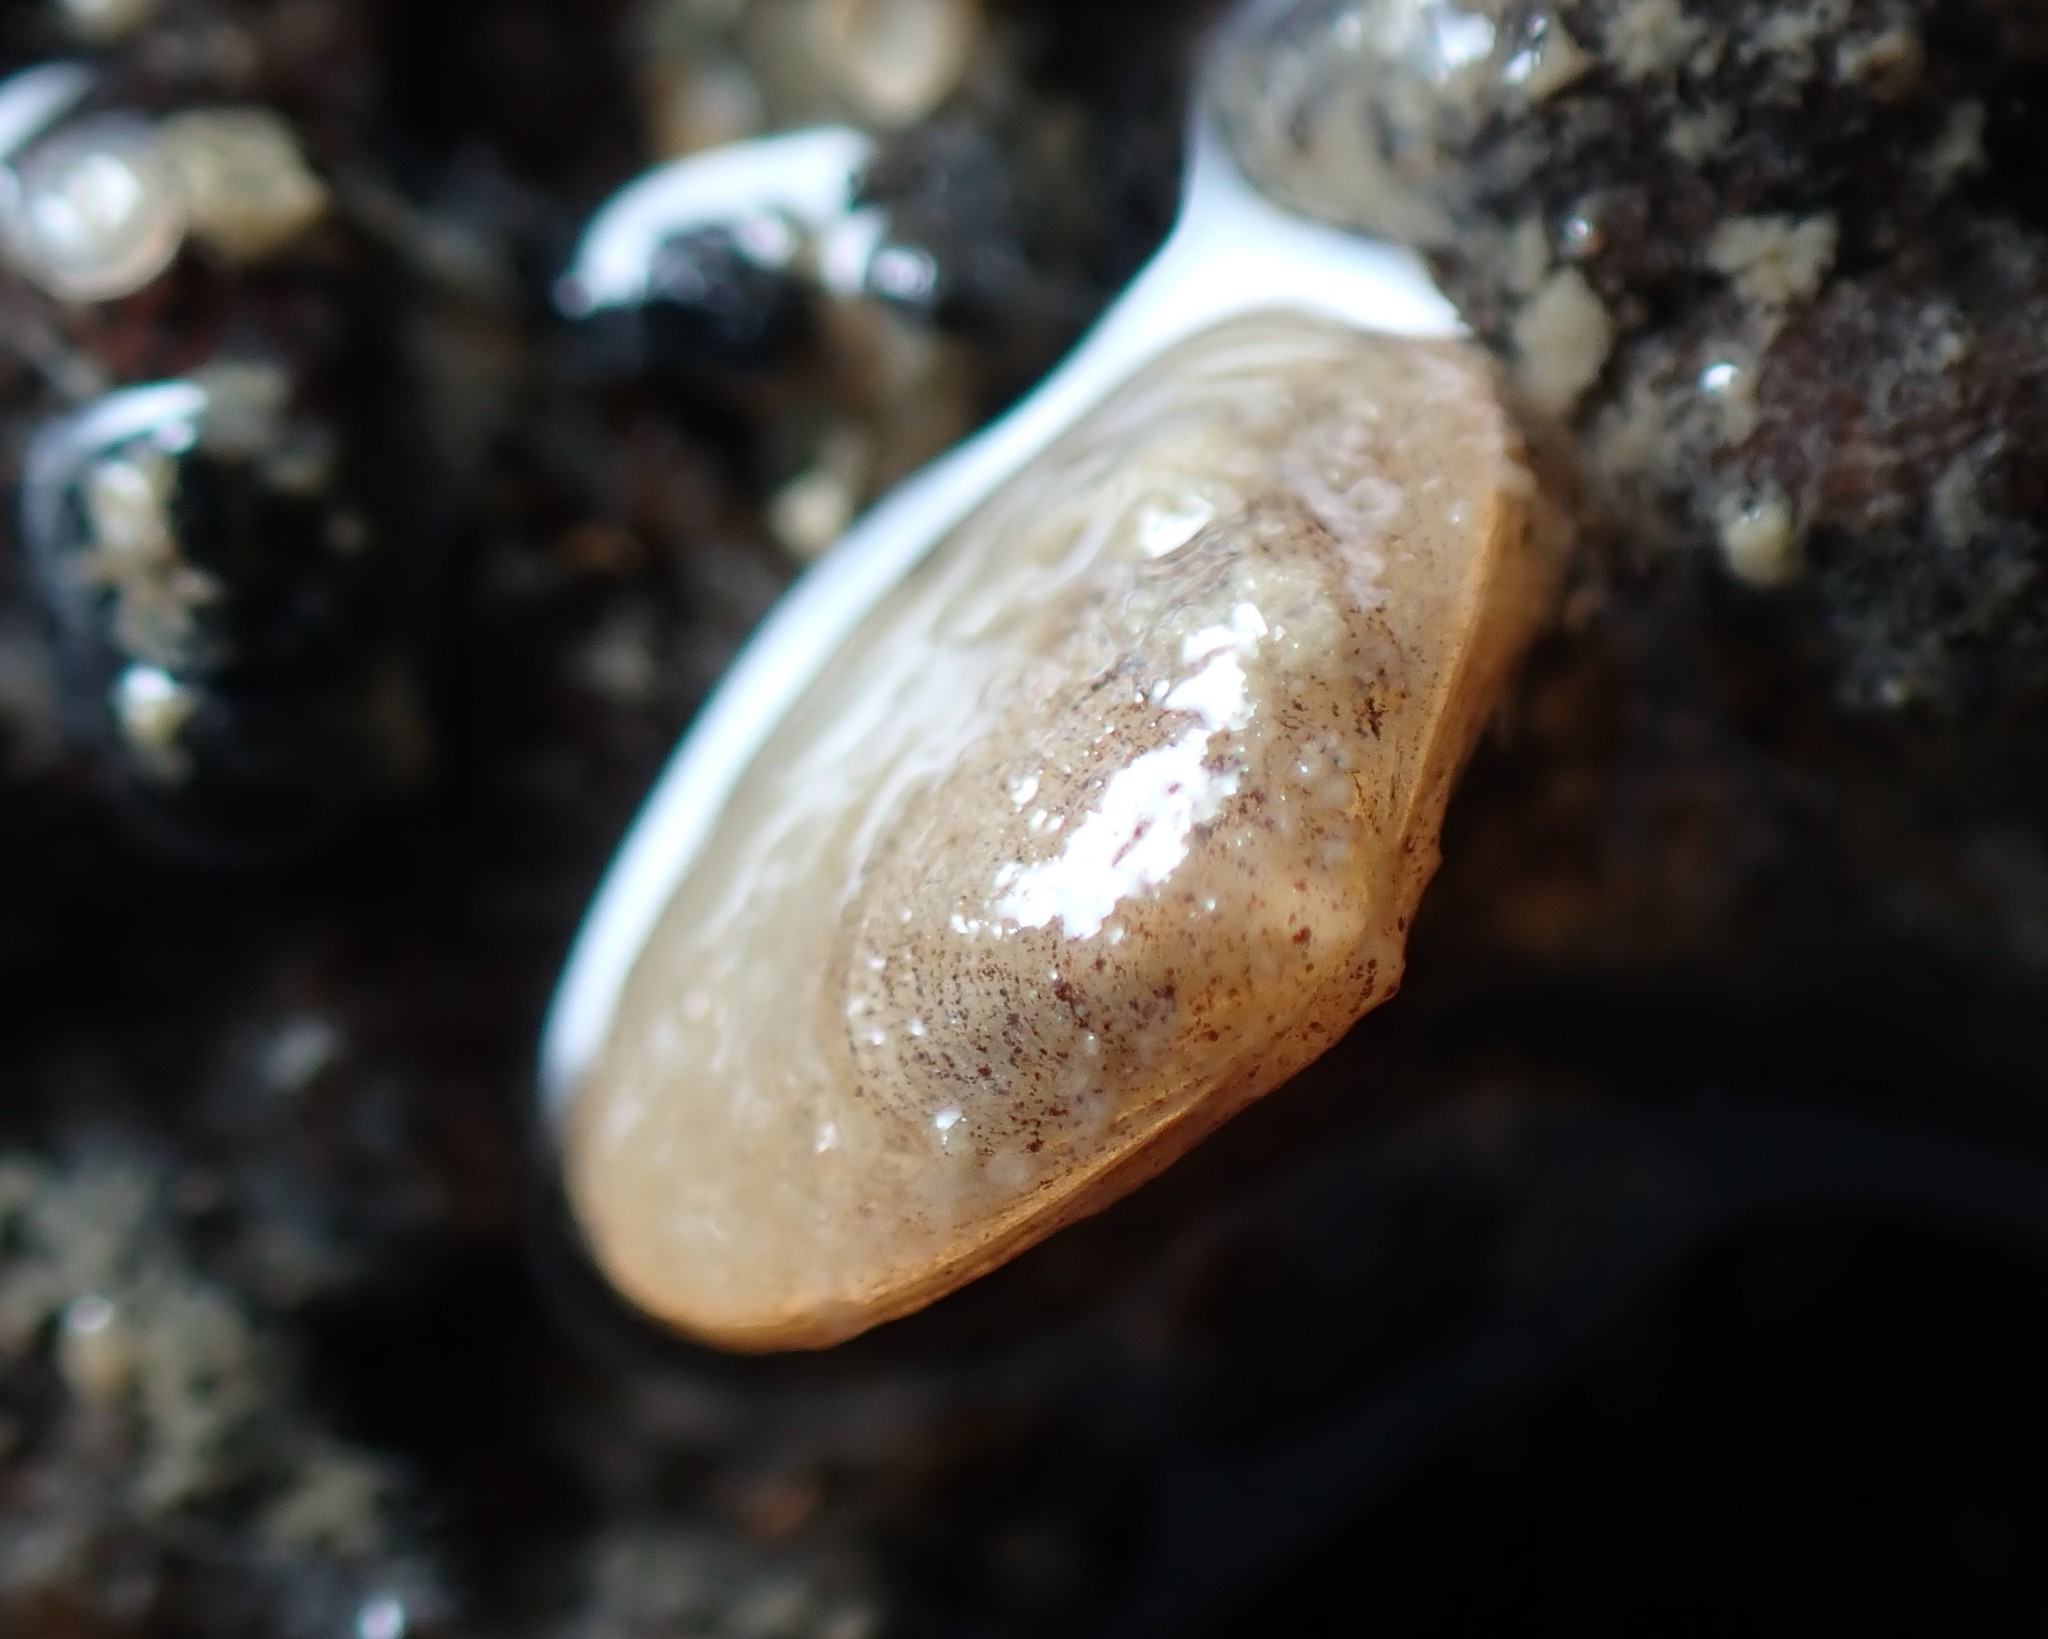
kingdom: Animalia
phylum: Mollusca
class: Bivalvia
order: Galeommatida
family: Lasaeidae
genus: Borniola
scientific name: Borniola reniformis
